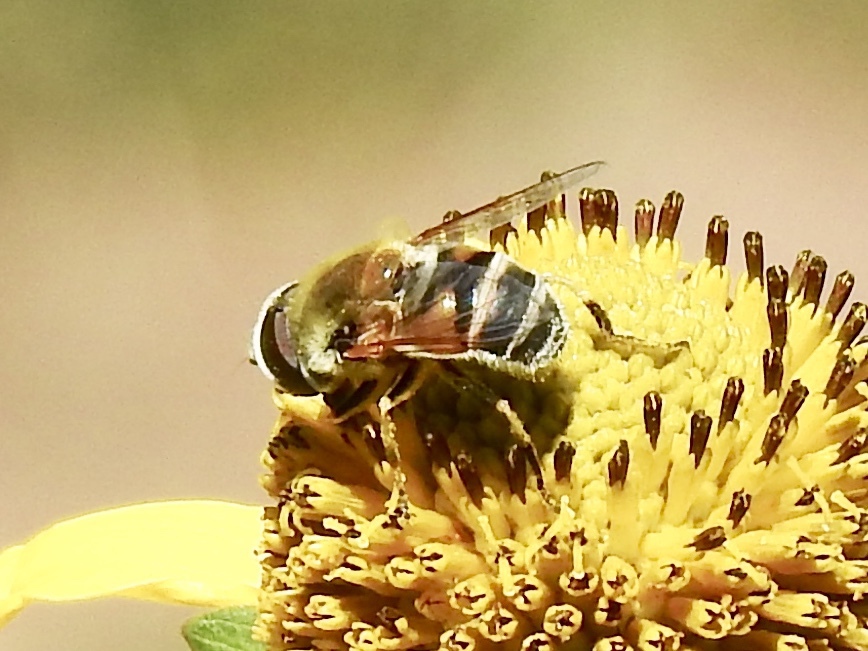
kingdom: Animalia
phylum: Arthropoda
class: Insecta
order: Diptera
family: Syrphidae
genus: Eristalis
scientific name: Eristalis stipator
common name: Yellow-shouldered drone fly
